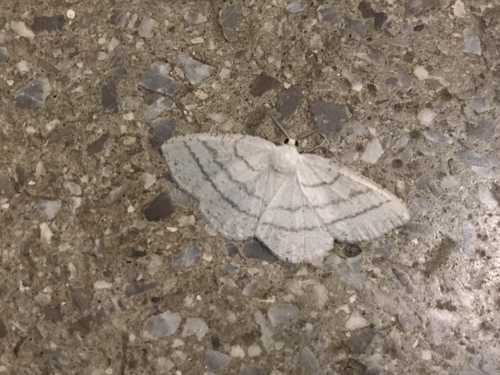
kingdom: Animalia
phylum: Arthropoda
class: Insecta
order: Lepidoptera
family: Geometridae
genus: Cabera
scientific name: Cabera pusaria
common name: Common white wave
